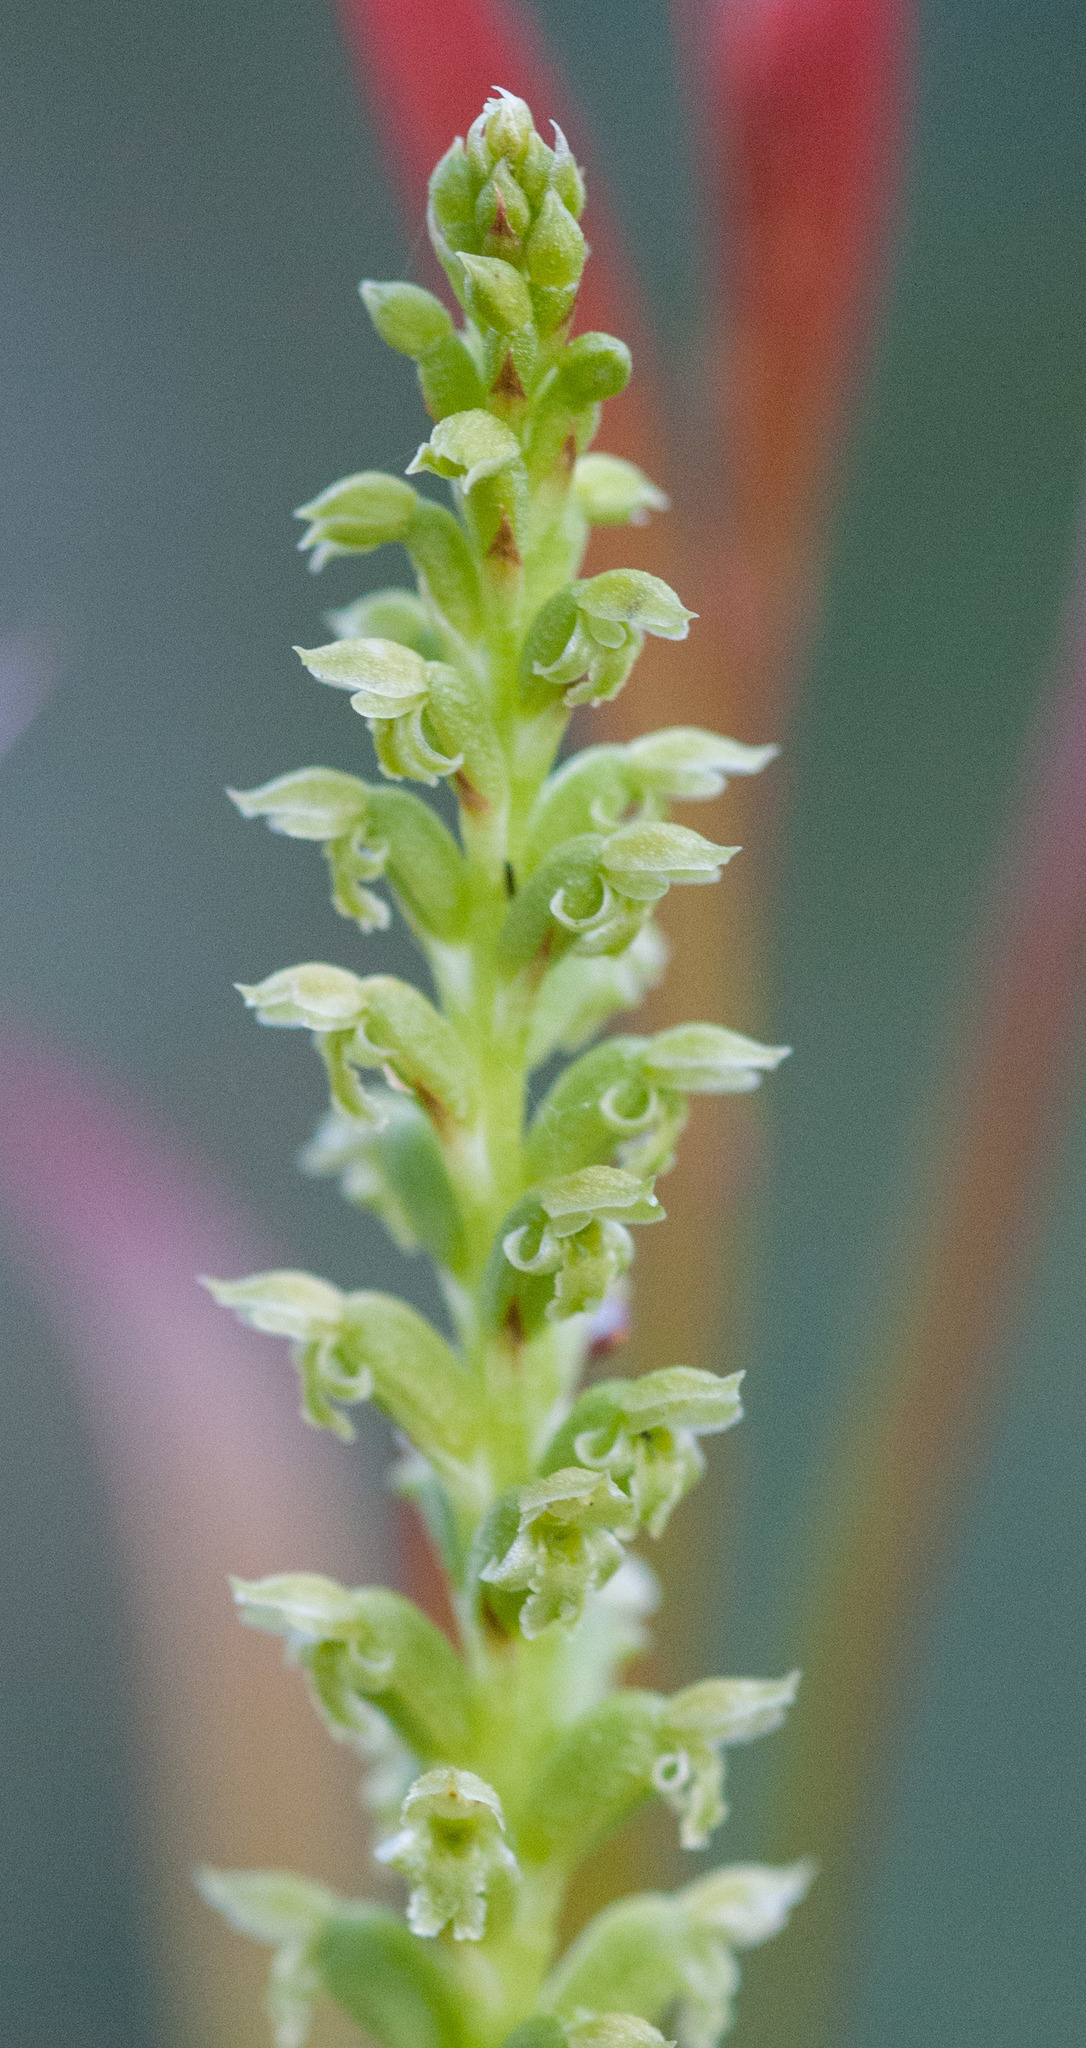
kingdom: Plantae
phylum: Tracheophyta
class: Liliopsida
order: Asparagales
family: Orchidaceae
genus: Microtis
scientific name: Microtis arenaria
